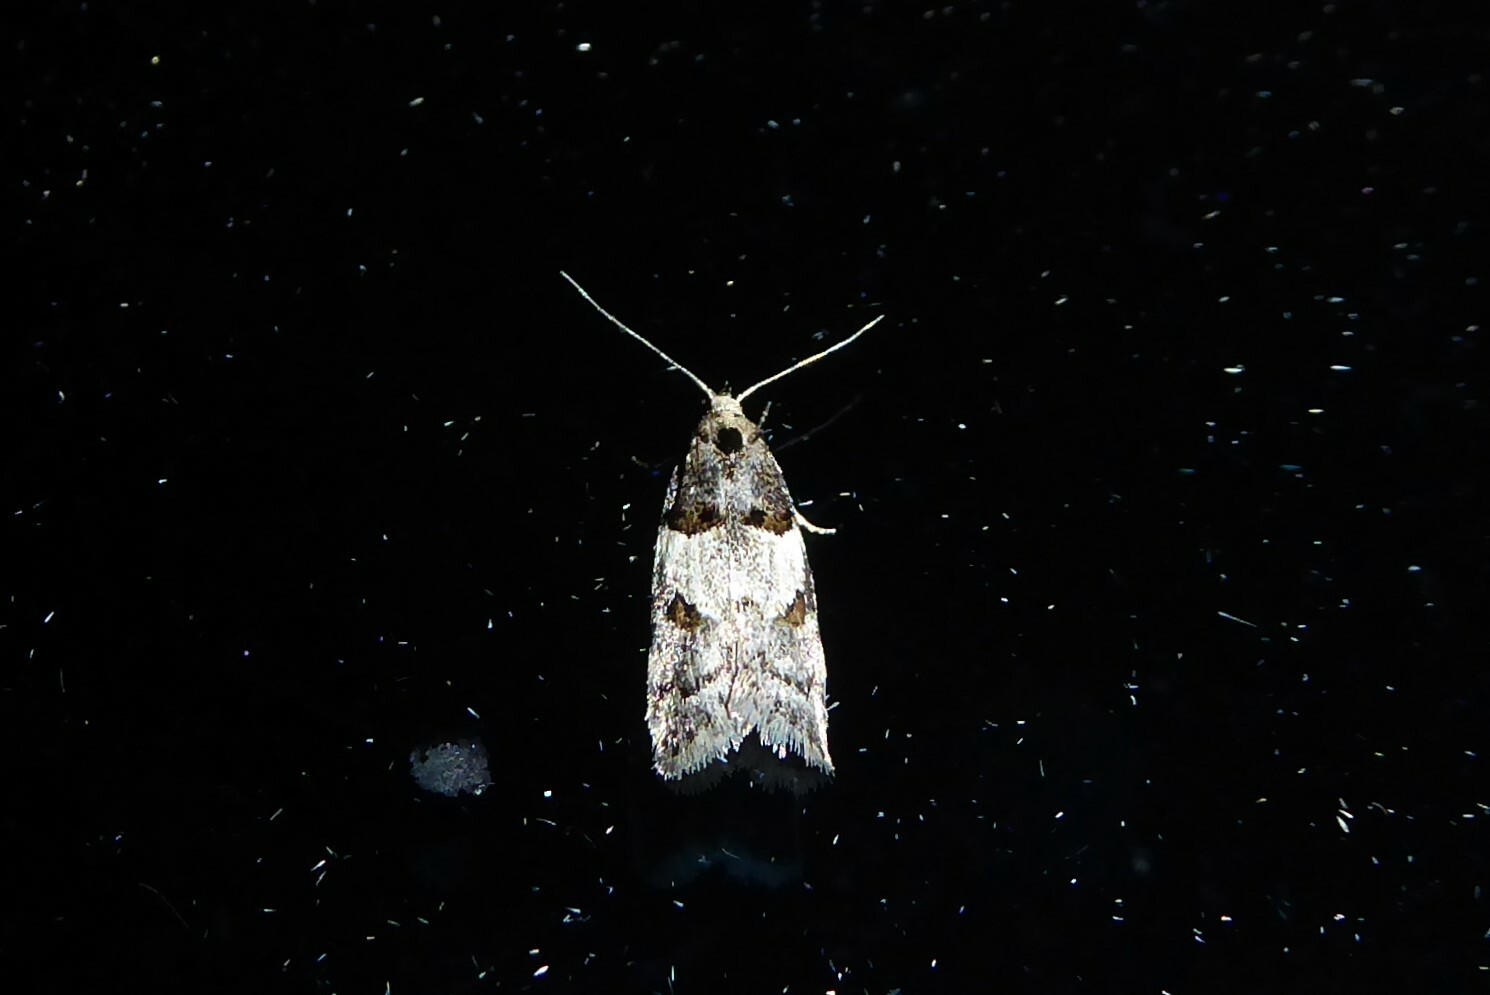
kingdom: Animalia
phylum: Arthropoda
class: Insecta
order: Lepidoptera
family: Oecophoridae
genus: Trachypepla
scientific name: Trachypepla contritella
